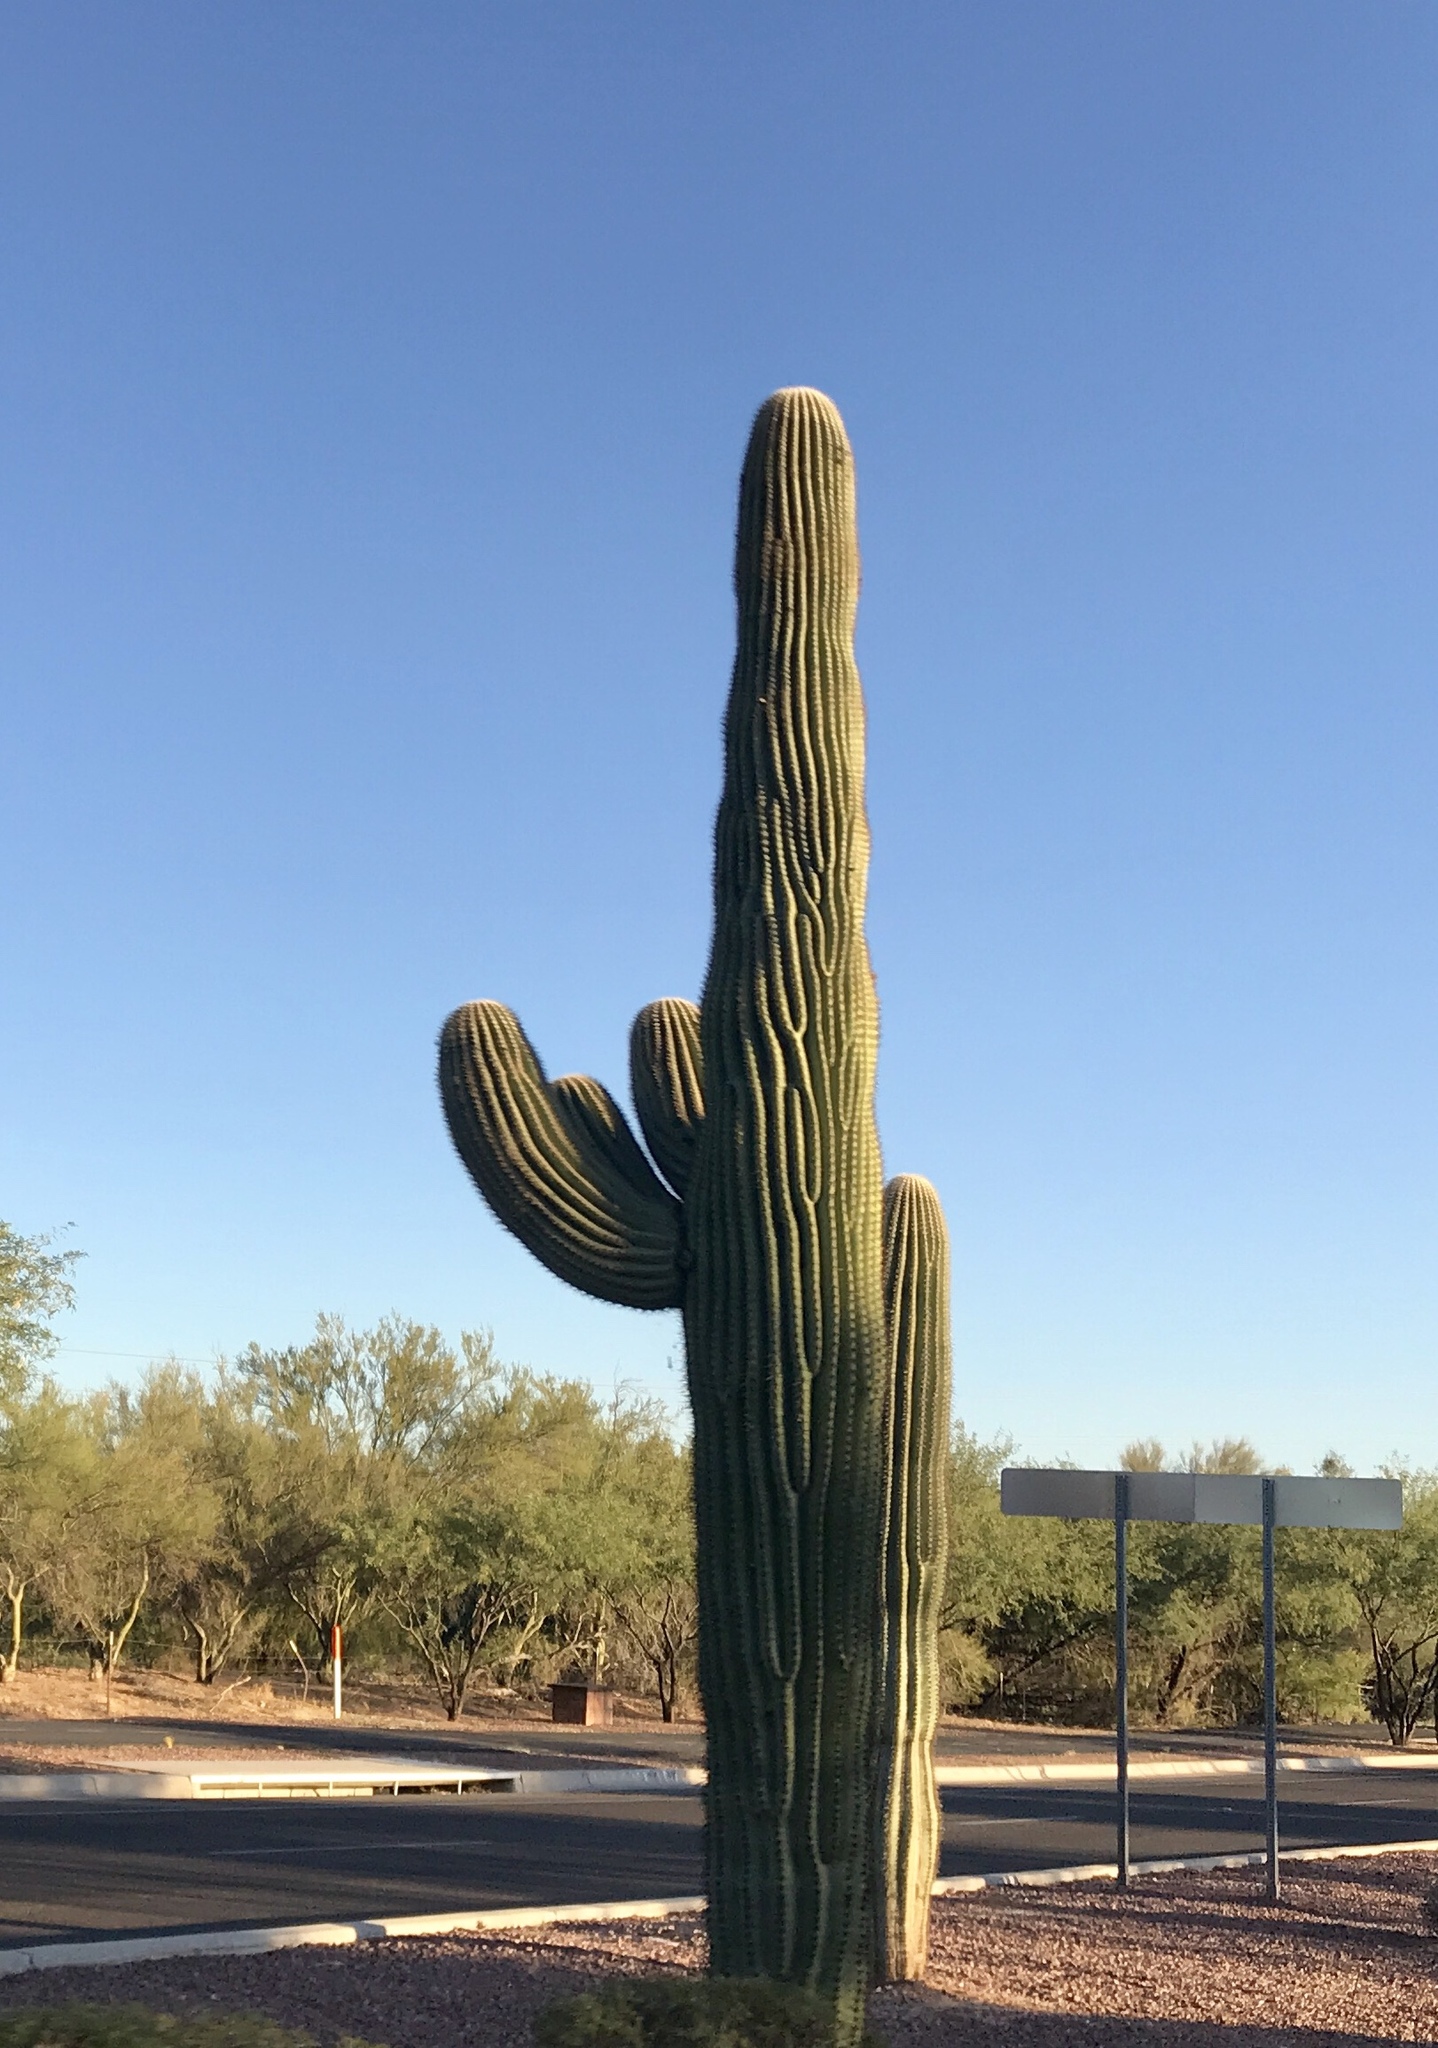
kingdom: Plantae
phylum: Tracheophyta
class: Magnoliopsida
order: Caryophyllales
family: Cactaceae
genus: Carnegiea
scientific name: Carnegiea gigantea
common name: Saguaro
